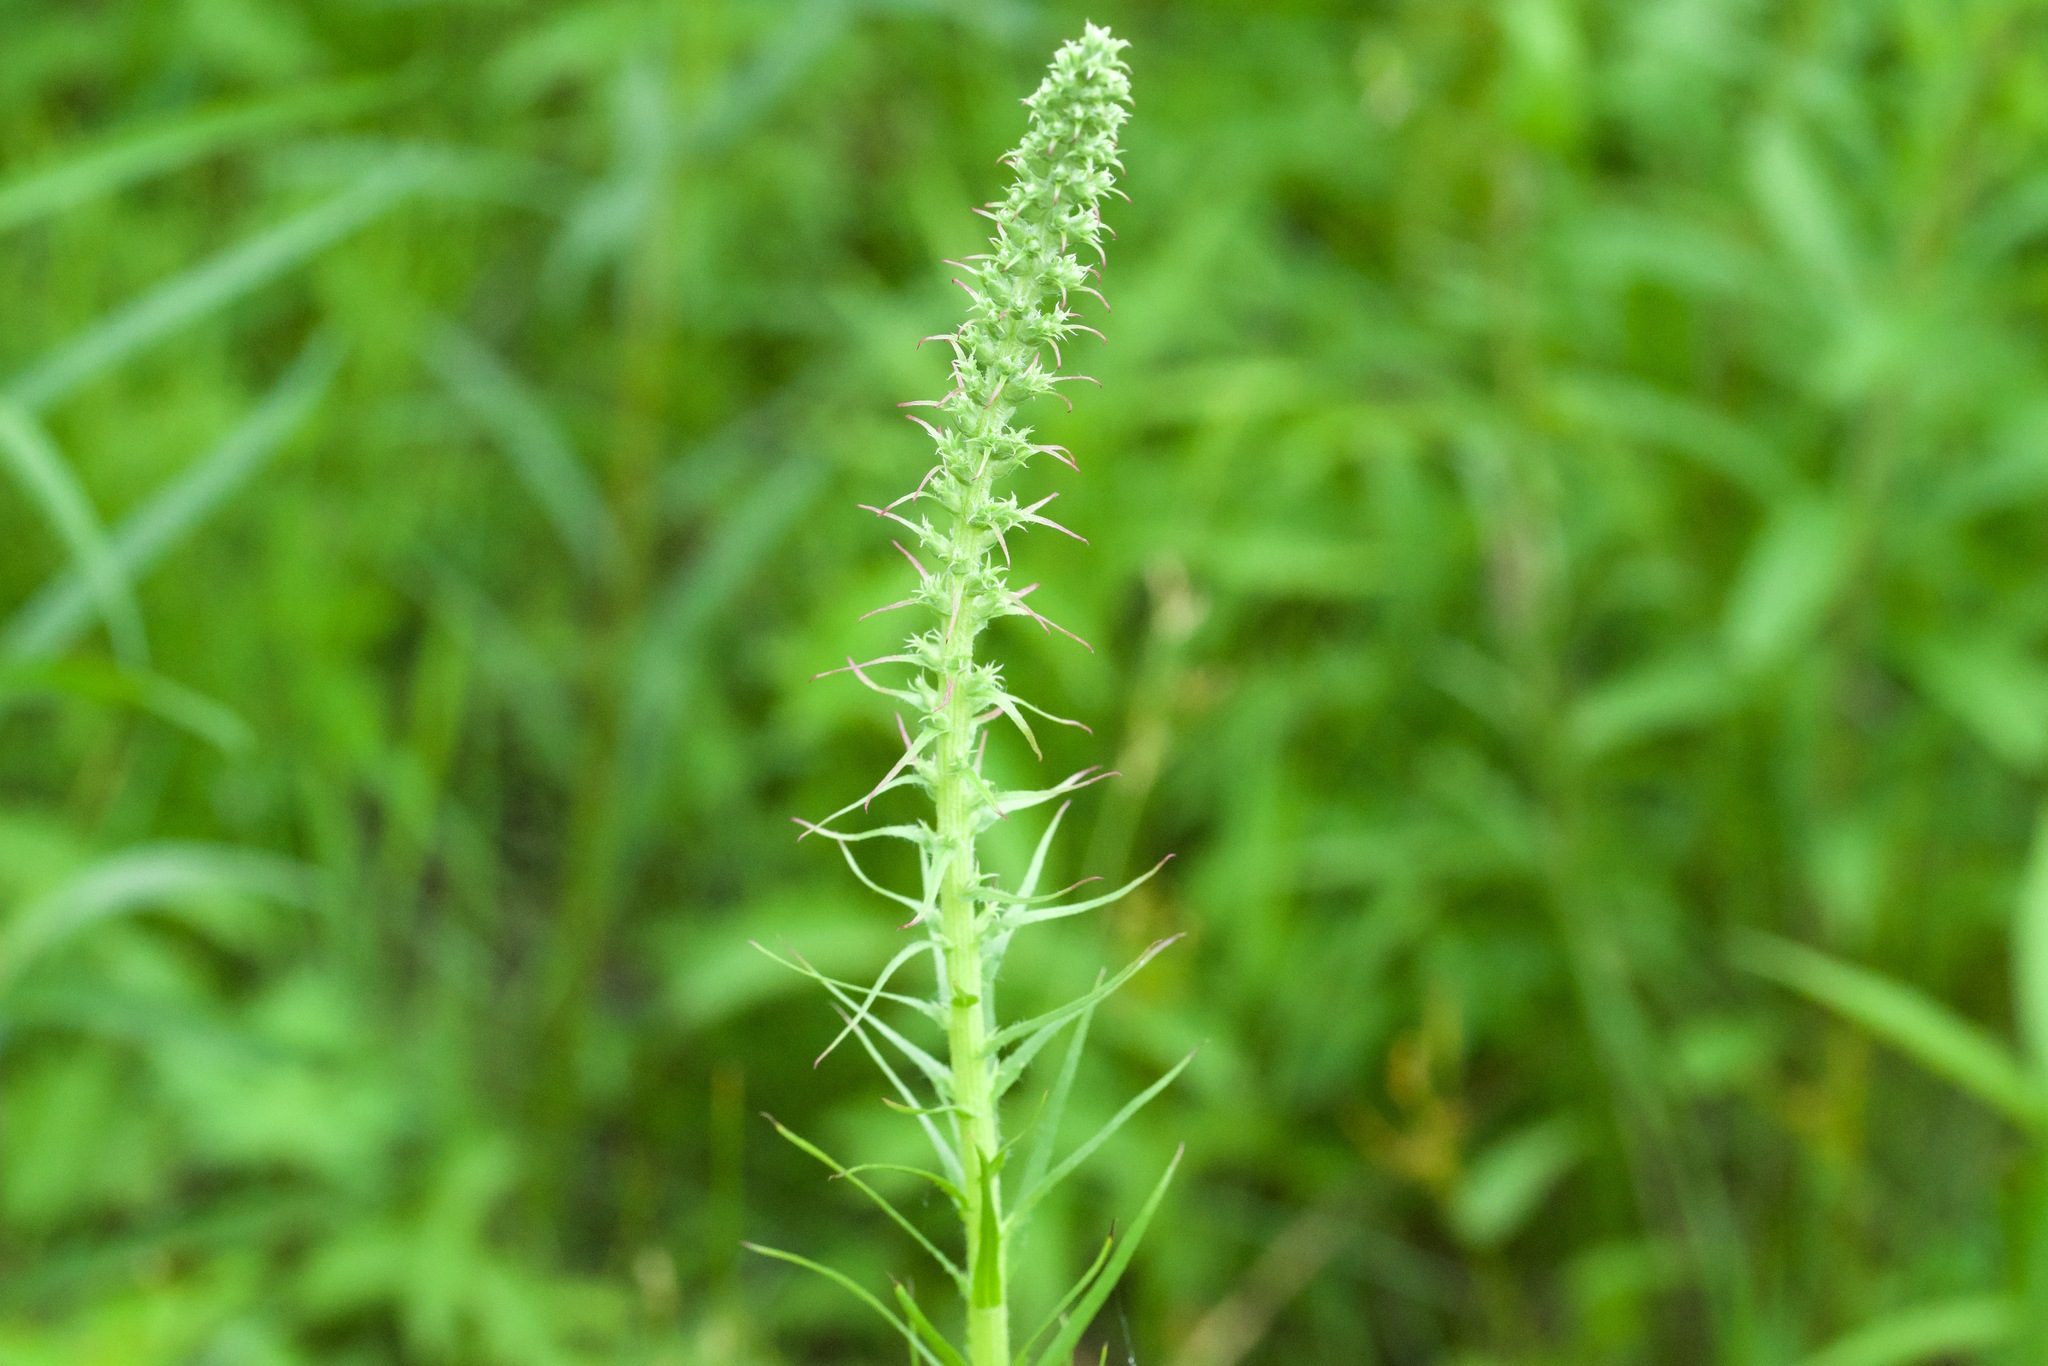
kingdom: Plantae
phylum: Tracheophyta
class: Magnoliopsida
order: Asterales
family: Asteraceae
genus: Liatris
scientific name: Liatris spicata
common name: Florist gayfeather
